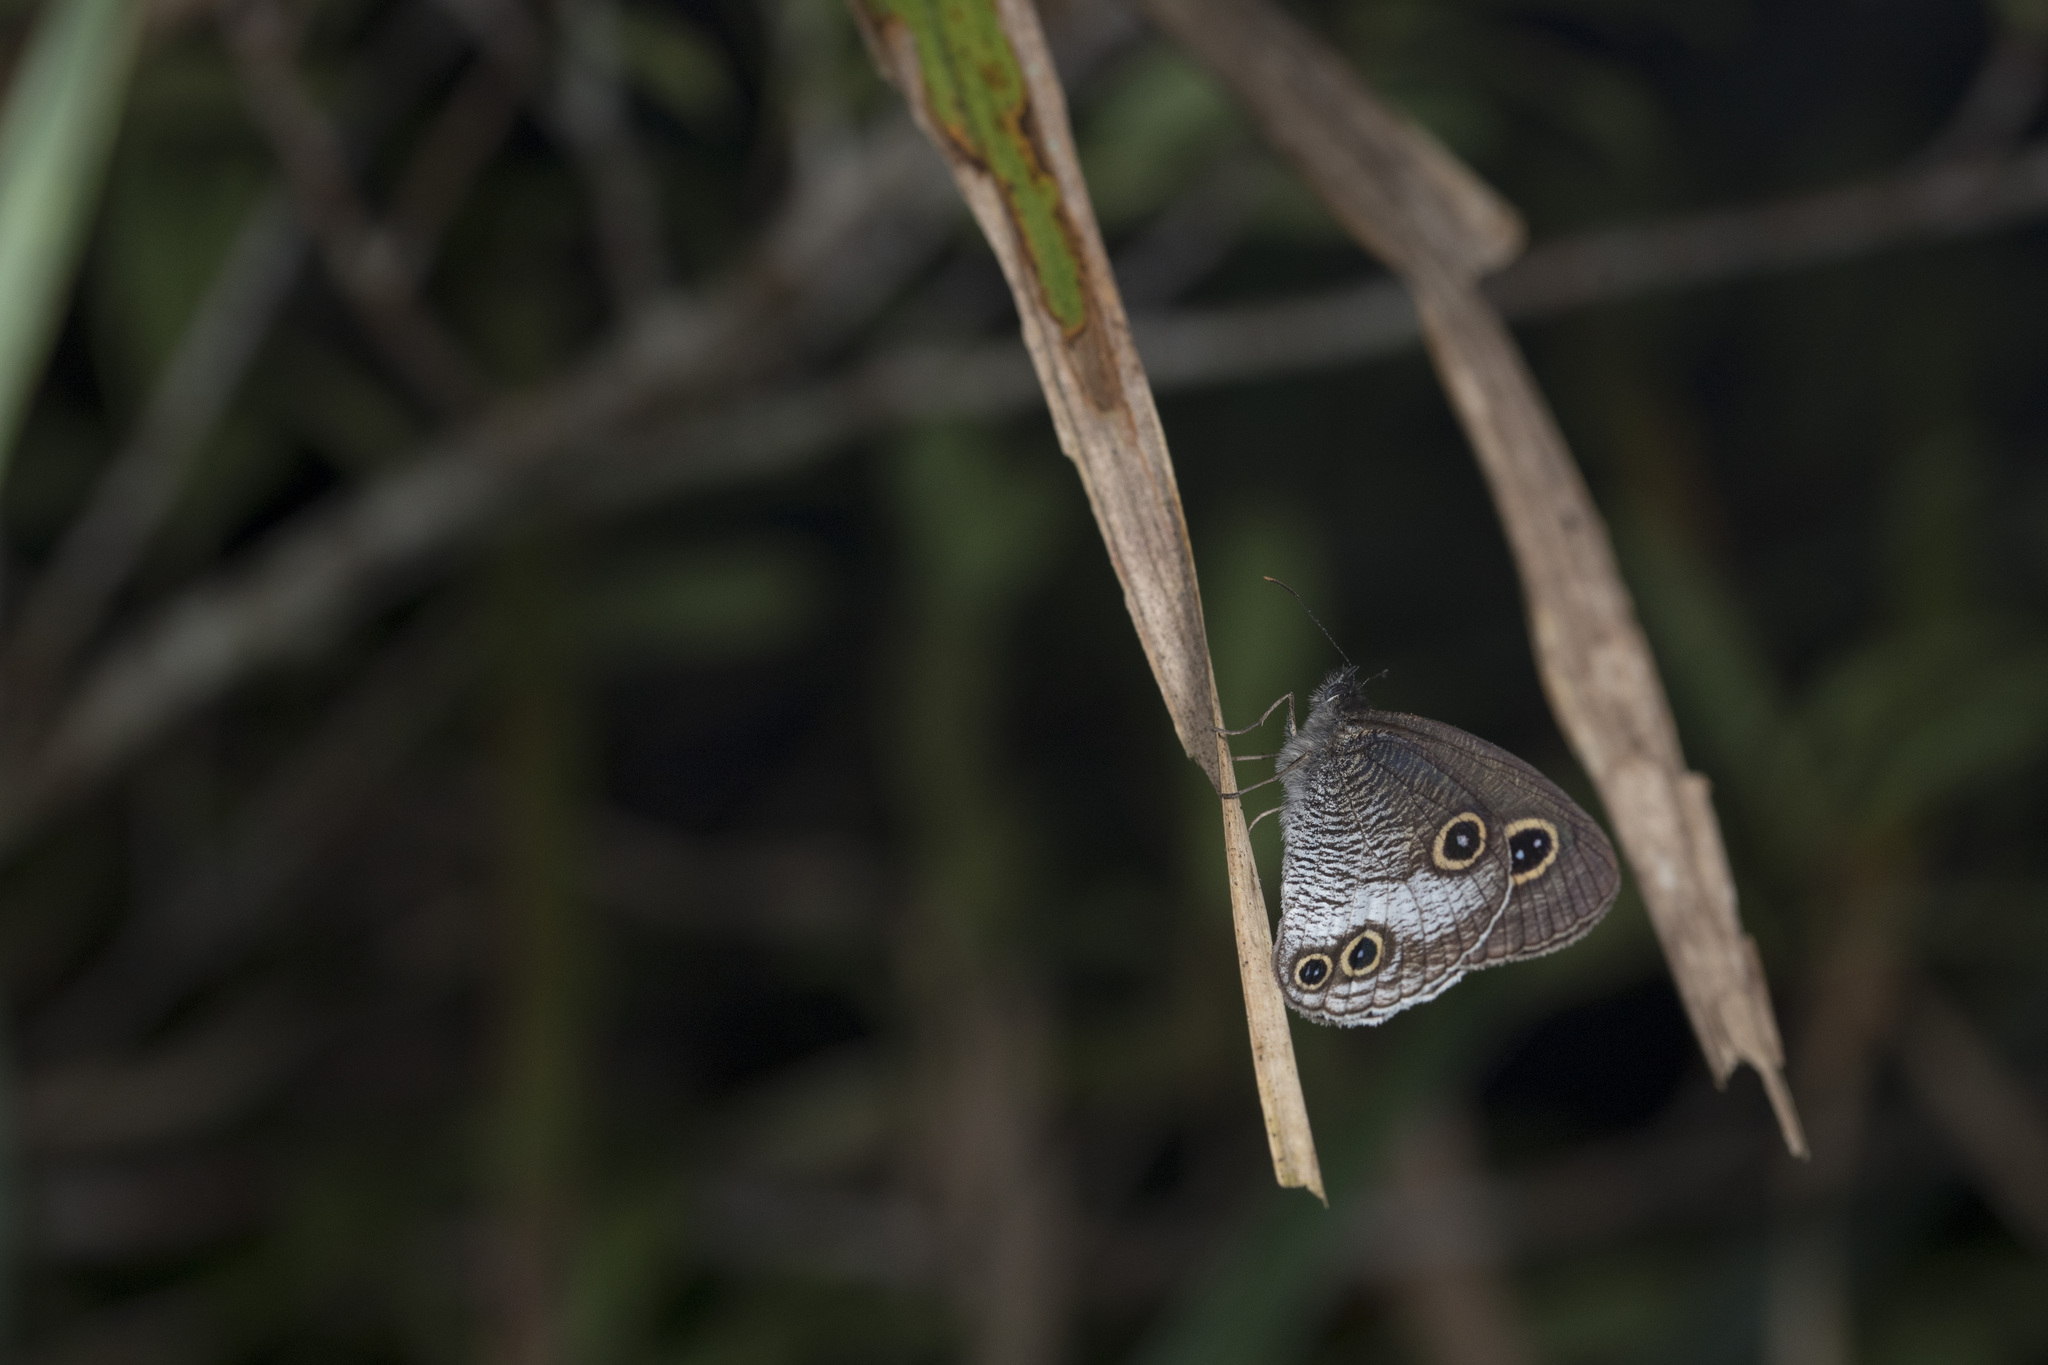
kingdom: Animalia
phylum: Arthropoda
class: Insecta
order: Lepidoptera
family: Nymphalidae
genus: Ypthima
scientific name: Ypthima motschulskyi
